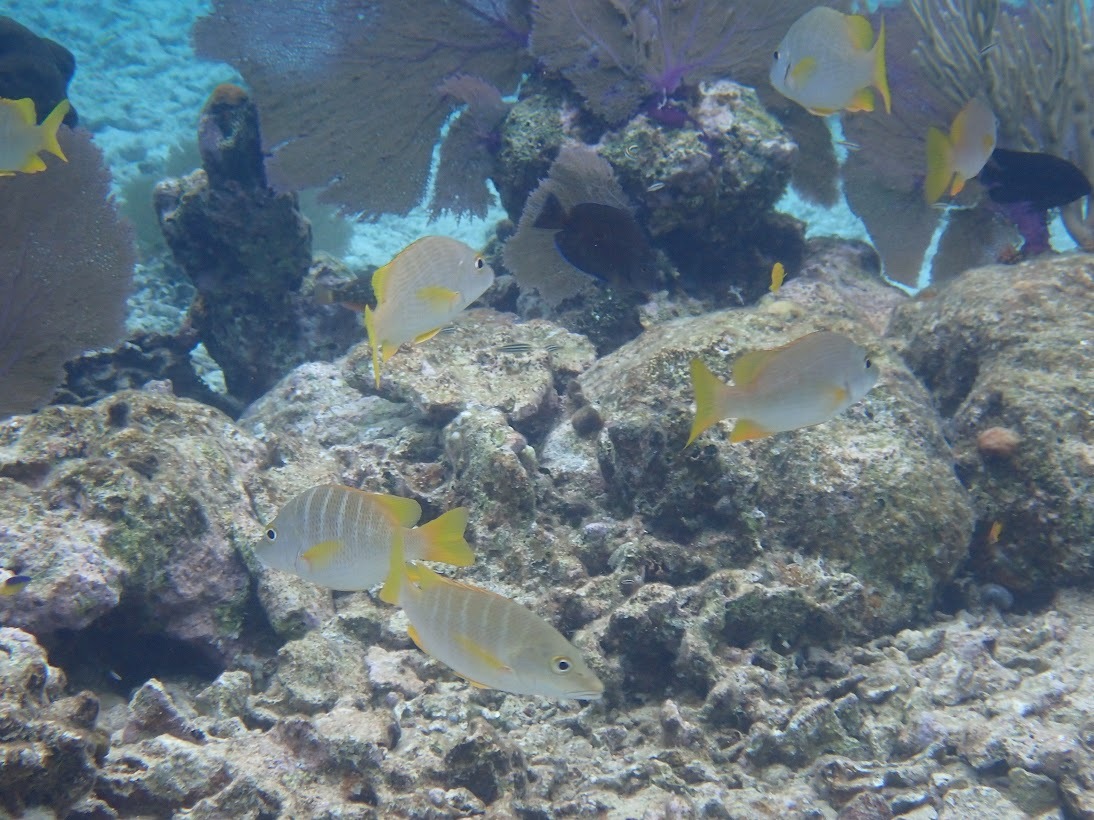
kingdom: Animalia
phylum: Chordata
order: Perciformes
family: Lutjanidae
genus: Lutjanus
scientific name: Lutjanus apodus
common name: Schoolmaster
